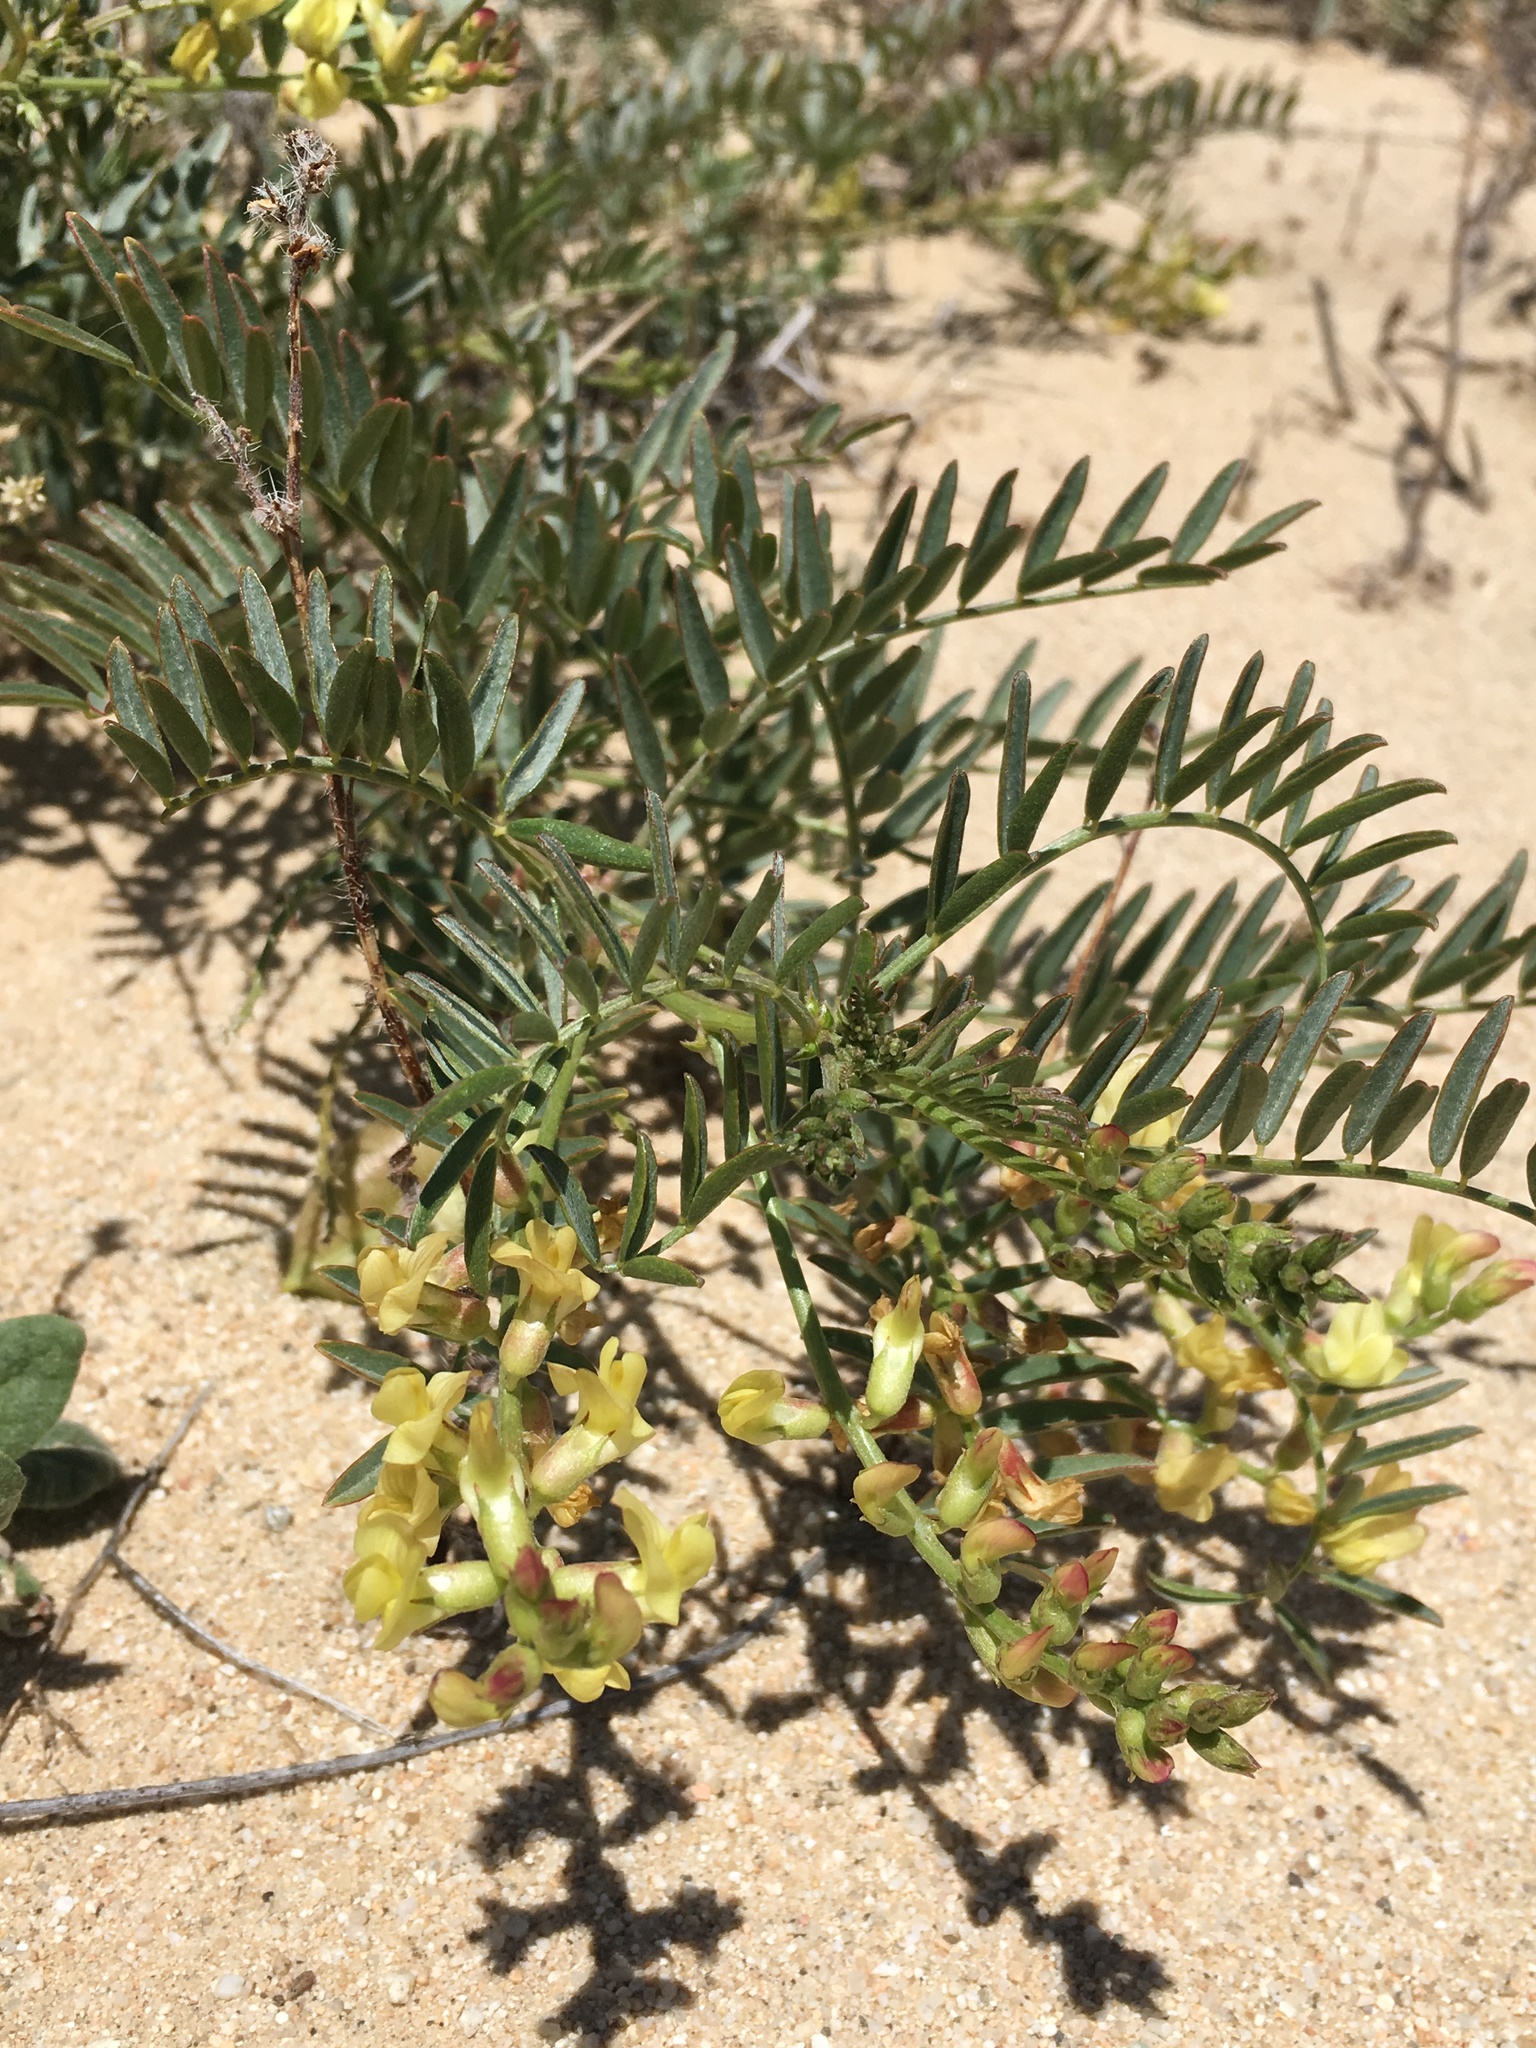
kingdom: Plantae
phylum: Tracheophyta
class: Magnoliopsida
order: Fabales
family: Fabaceae
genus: Astragalus
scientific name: Astragalus douglasii
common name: Jacumba milkvetch
